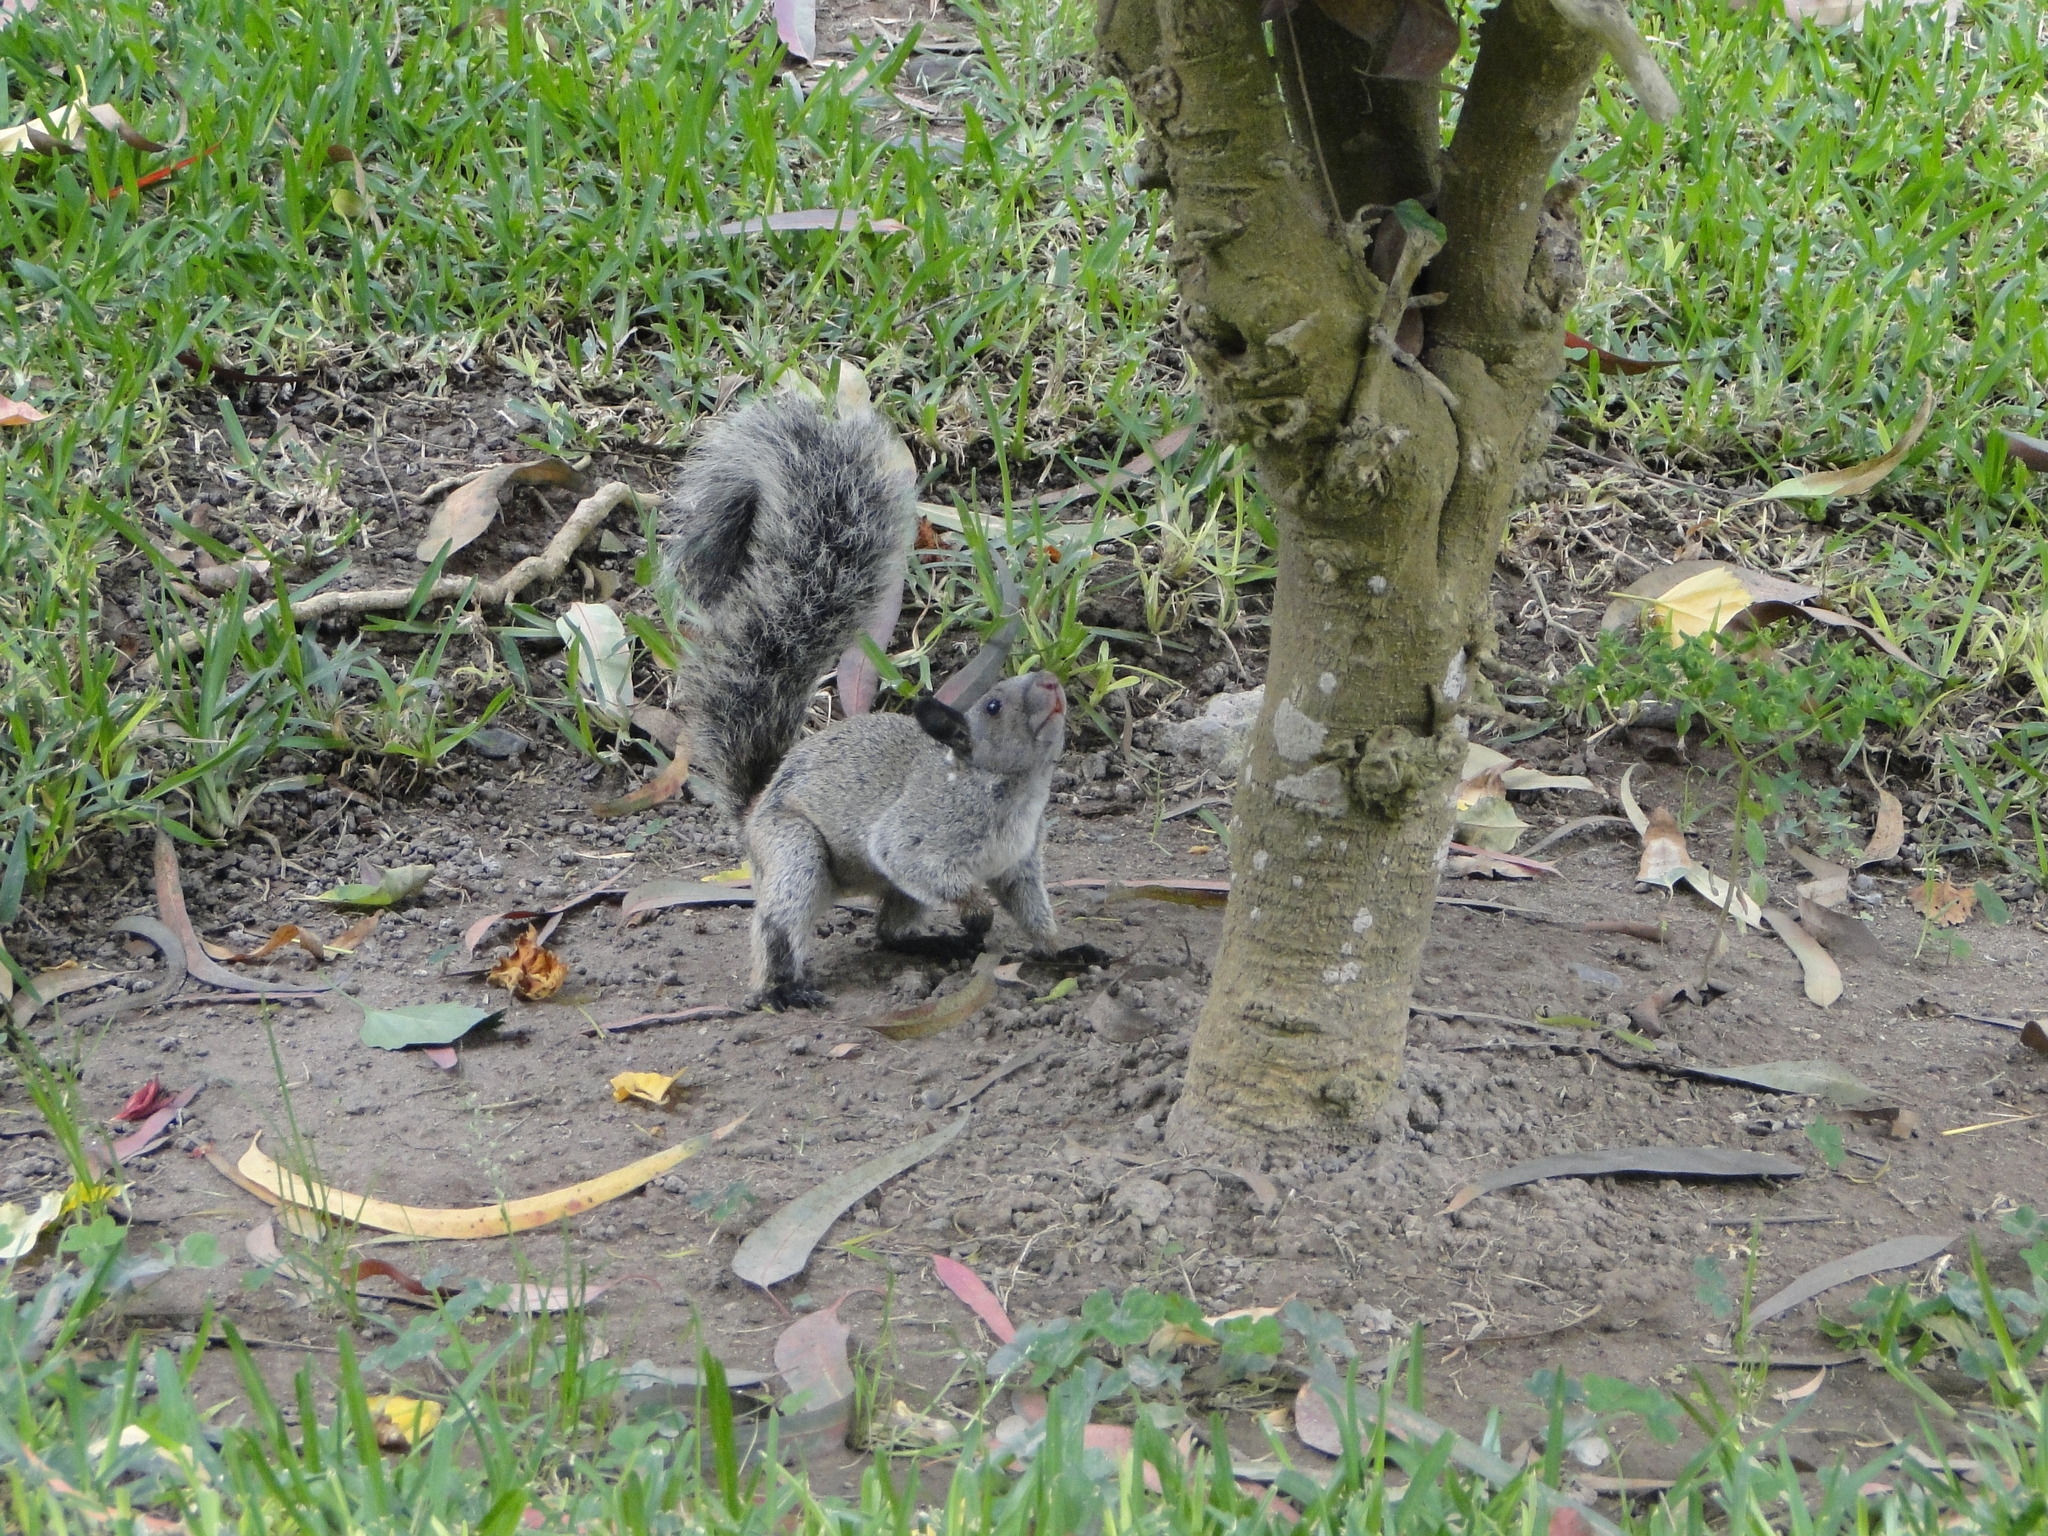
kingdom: Animalia
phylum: Chordata
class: Mammalia
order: Rodentia
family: Sciuridae
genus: Sciurus
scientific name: Sciurus stramineus
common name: Guayaquil squirrel
